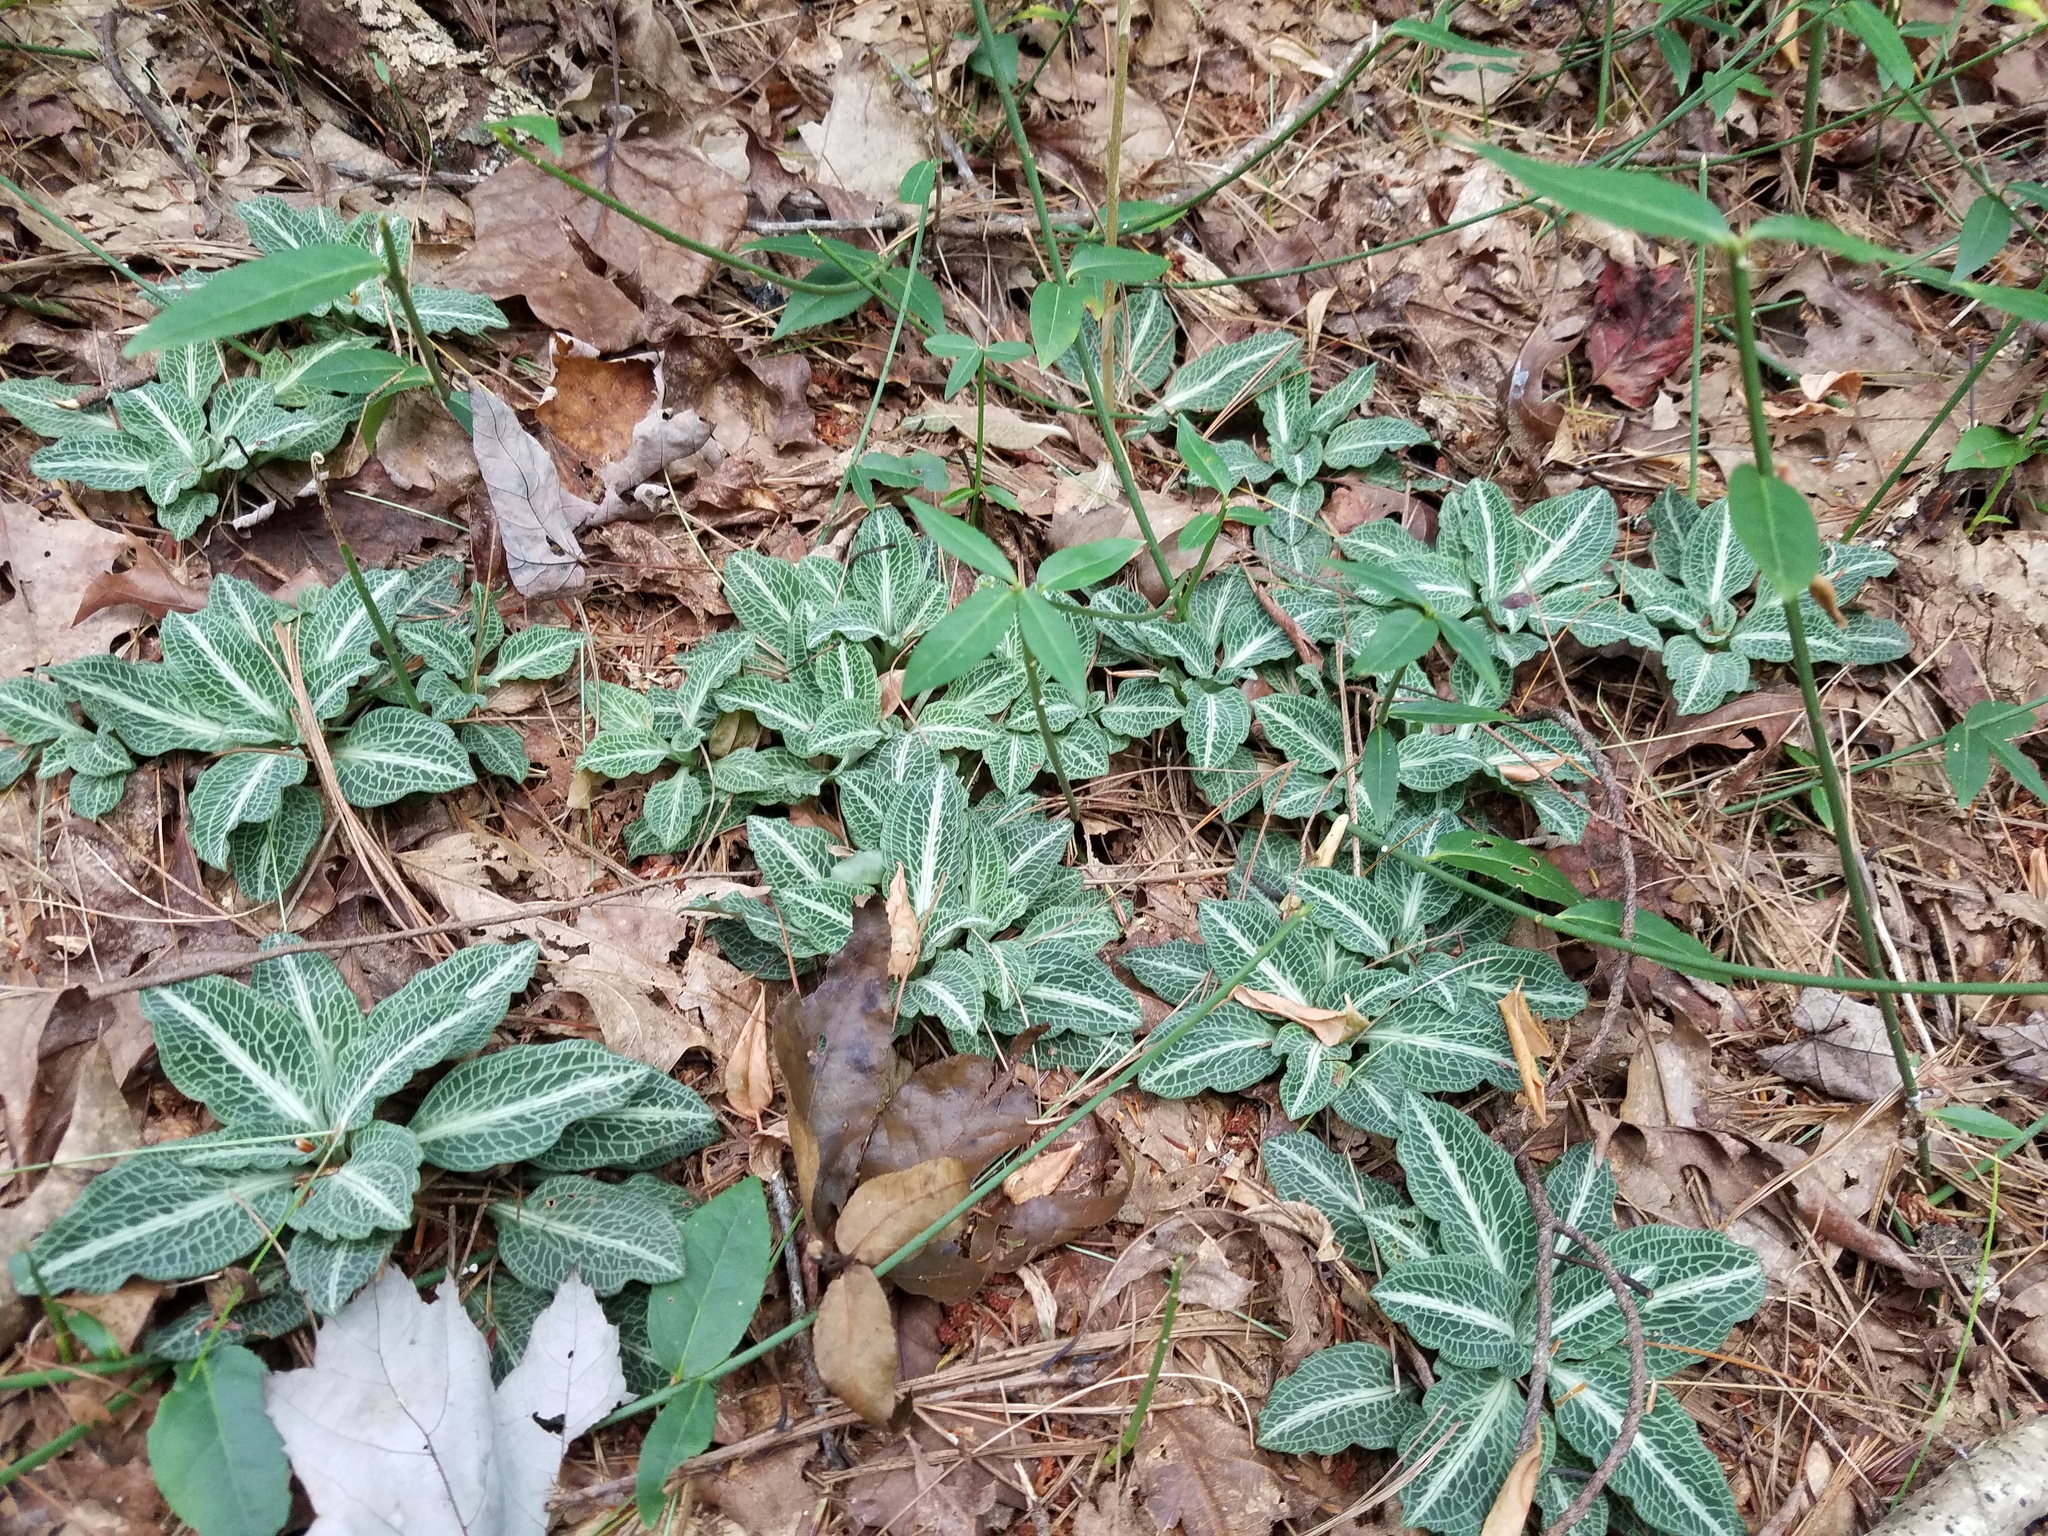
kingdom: Plantae
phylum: Tracheophyta
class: Liliopsida
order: Asparagales
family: Orchidaceae
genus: Goodyera
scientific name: Goodyera pubescens
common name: Downy rattlesnake-plantain
